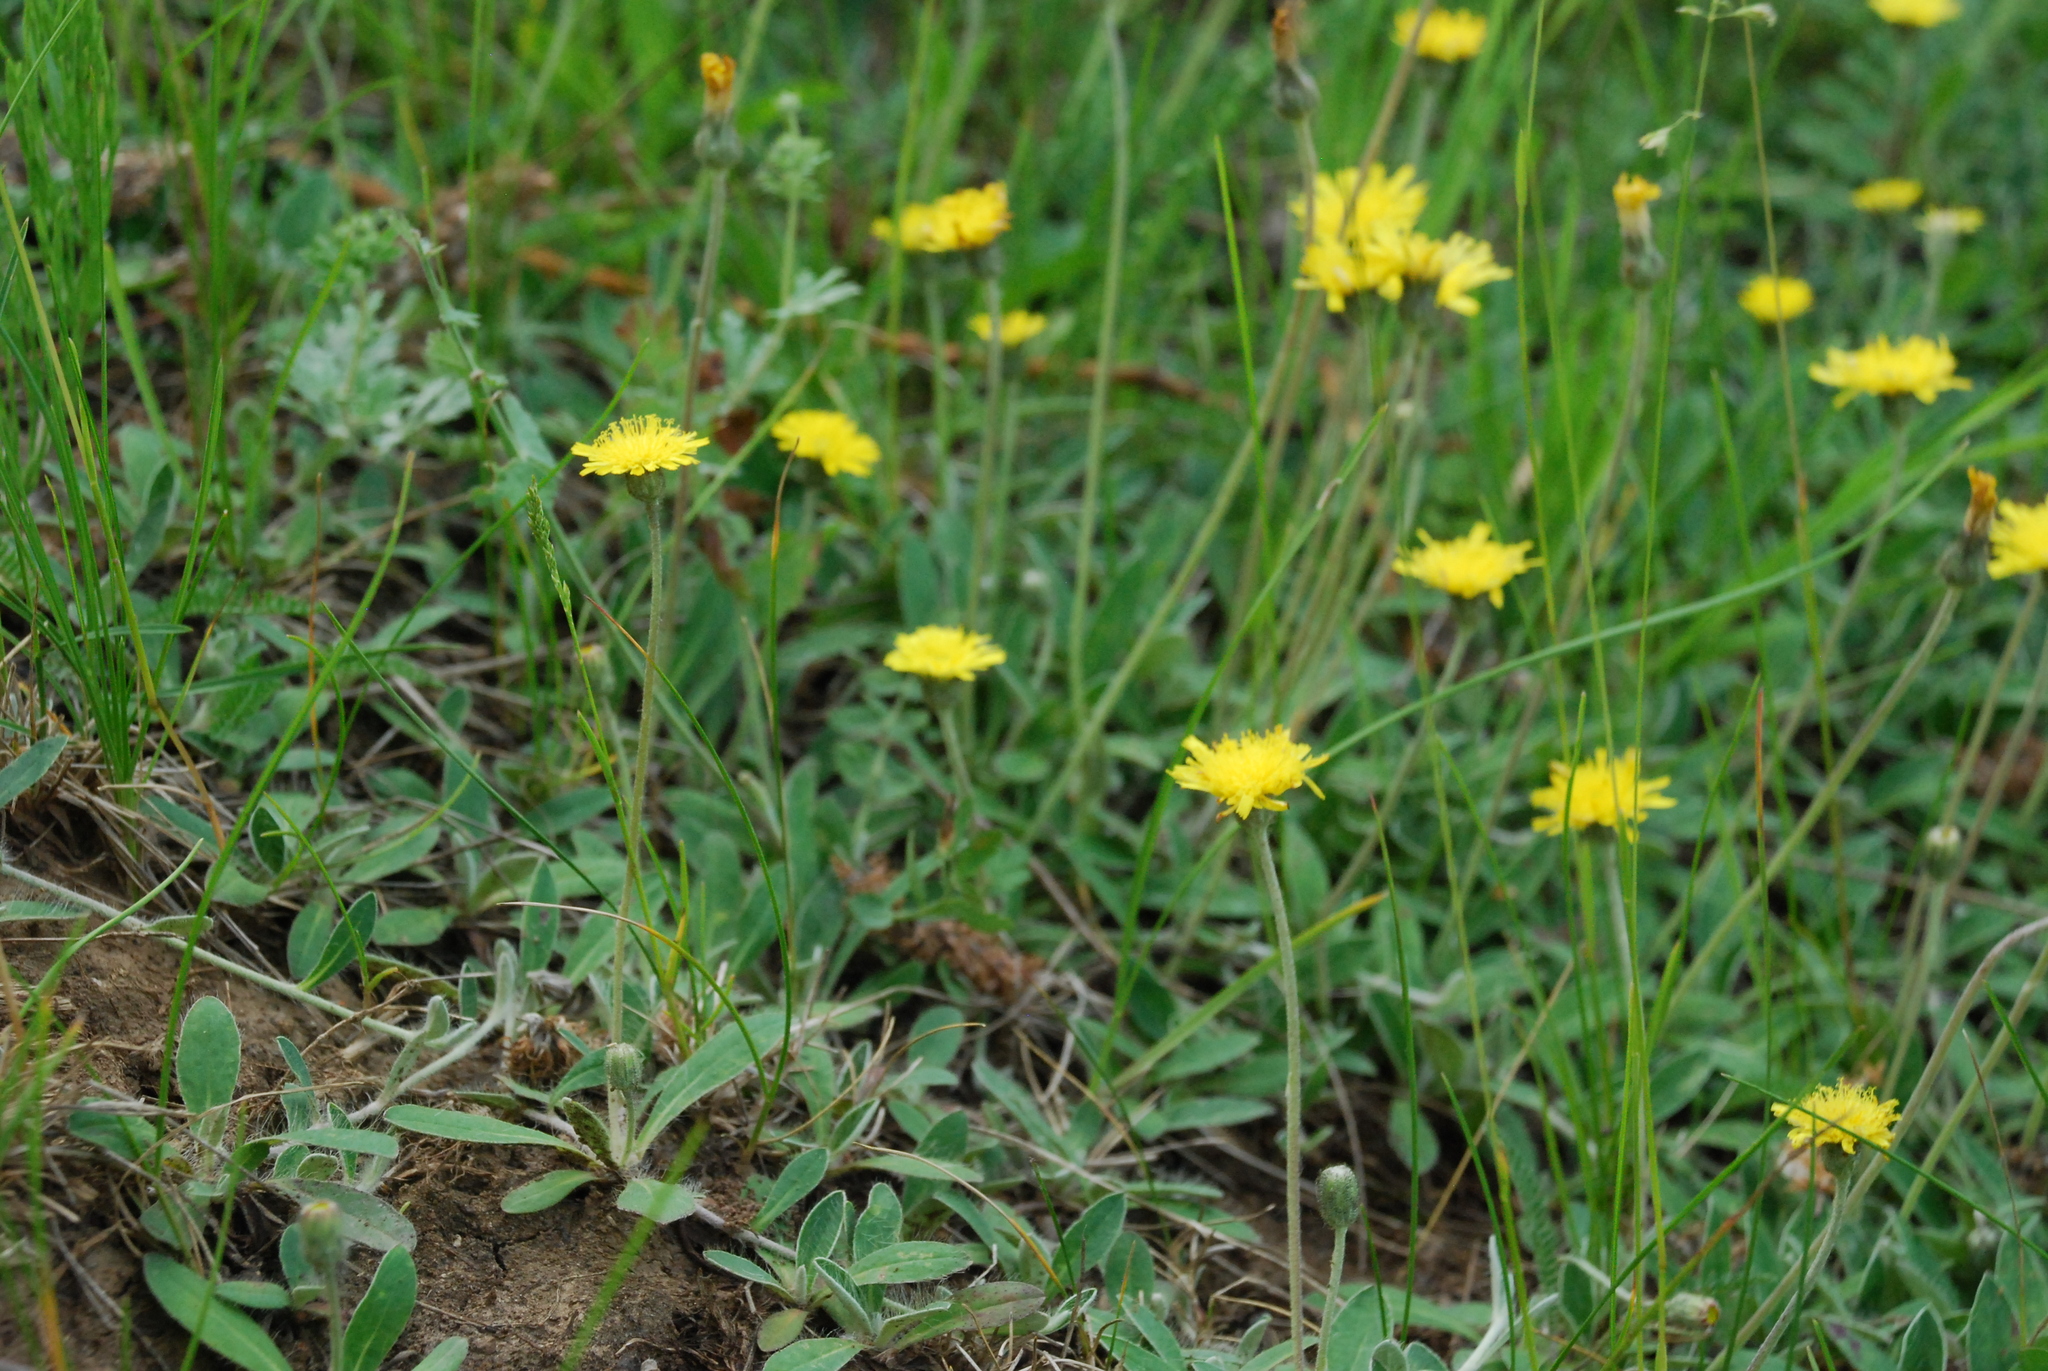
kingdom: Plantae
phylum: Tracheophyta
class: Magnoliopsida
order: Asterales
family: Asteraceae
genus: Pilosella
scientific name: Pilosella officinarum
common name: Mouse-ear hawkweed
